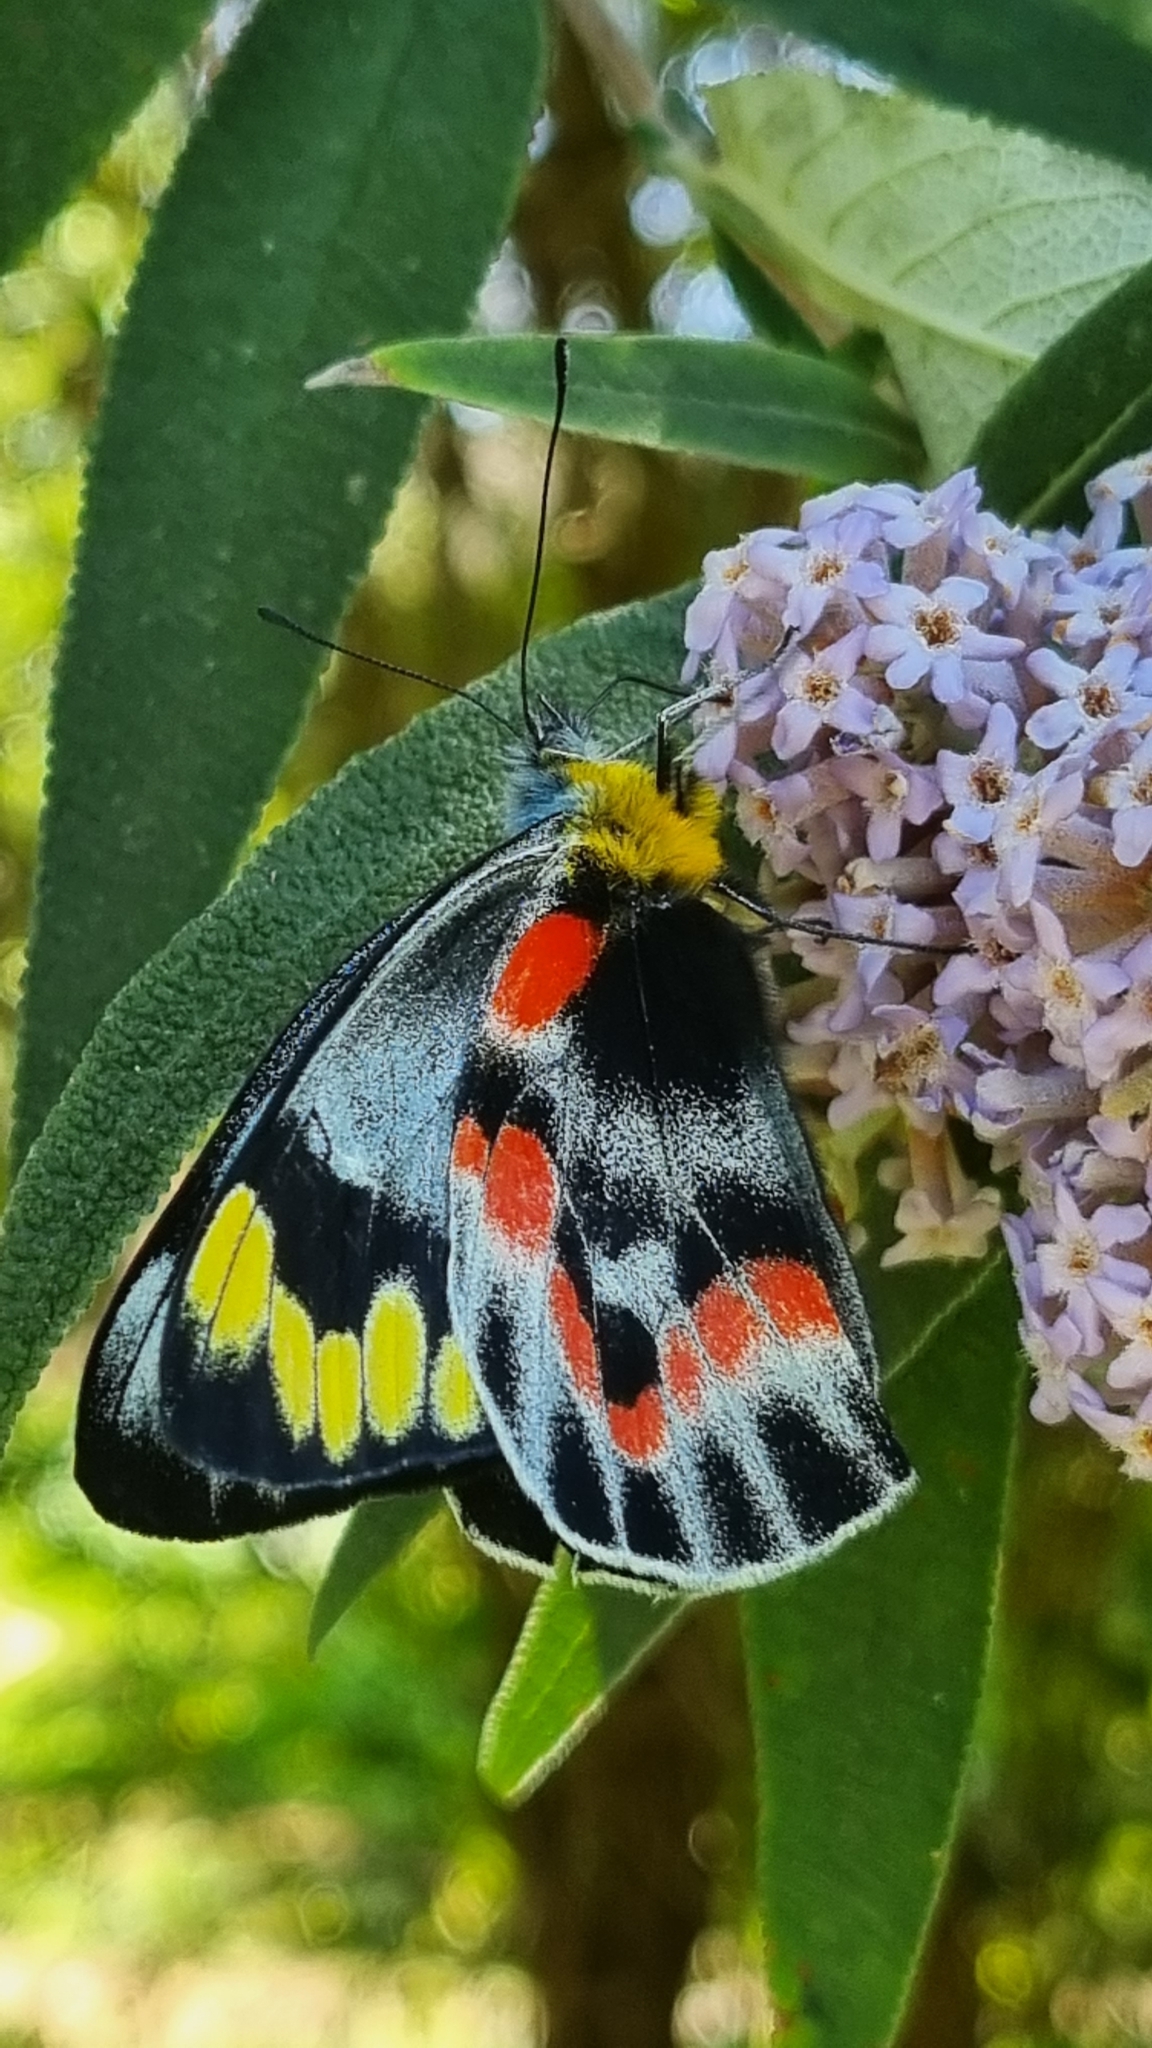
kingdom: Animalia
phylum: Arthropoda
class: Insecta
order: Lepidoptera
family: Pieridae
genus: Delias
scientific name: Delias harpalyce
